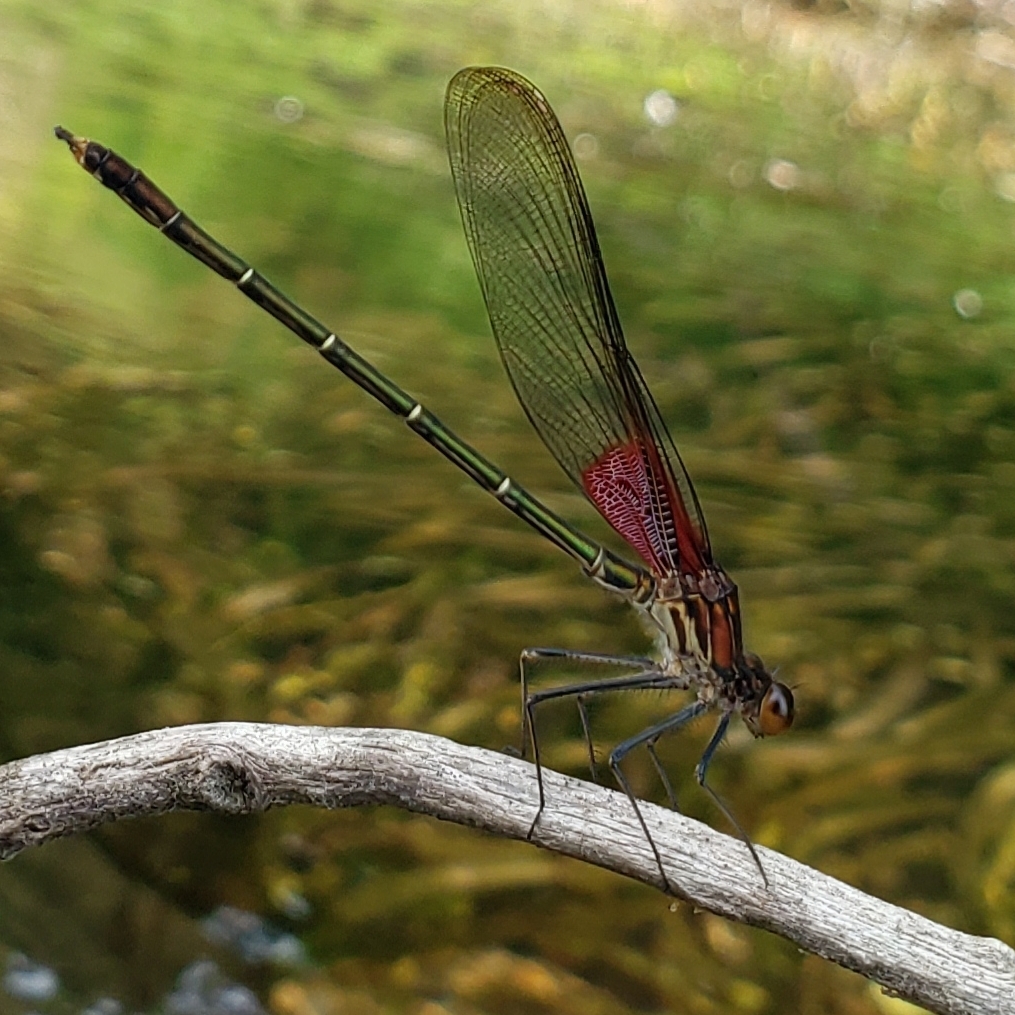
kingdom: Animalia
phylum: Arthropoda
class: Insecta
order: Odonata
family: Calopterygidae
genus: Hetaerina
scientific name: Hetaerina americana
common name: American rubyspot
